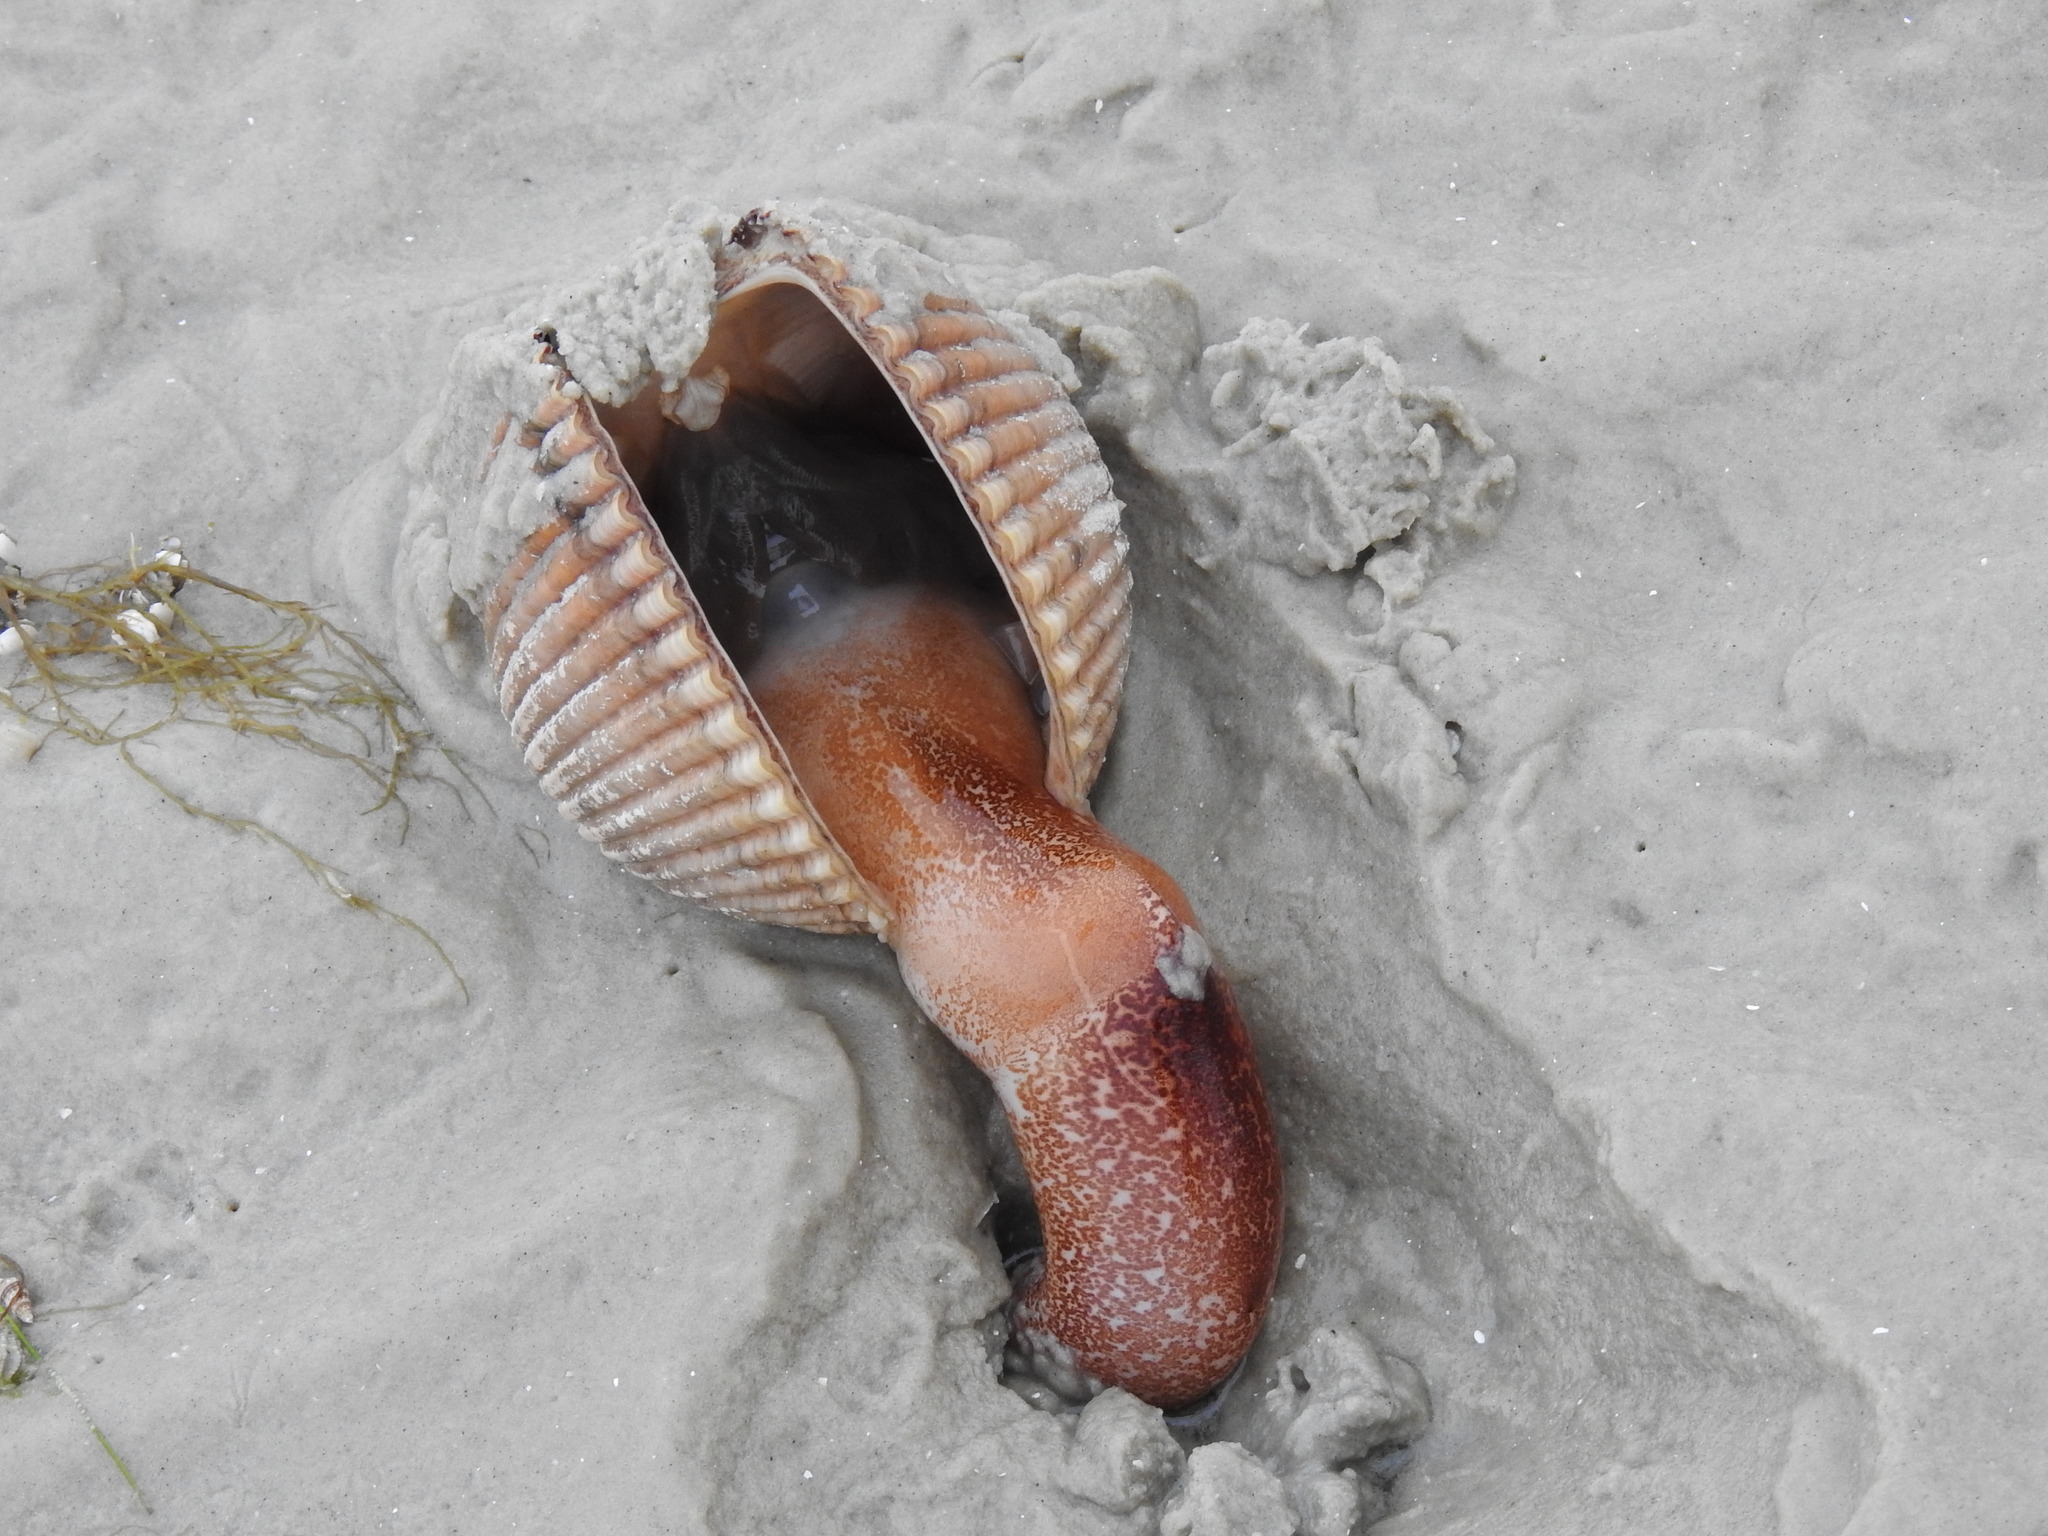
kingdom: Animalia
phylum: Mollusca
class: Bivalvia
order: Cardiida
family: Cardiidae
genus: Dinocardium
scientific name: Dinocardium robustum
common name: Atlantic giant cockle
